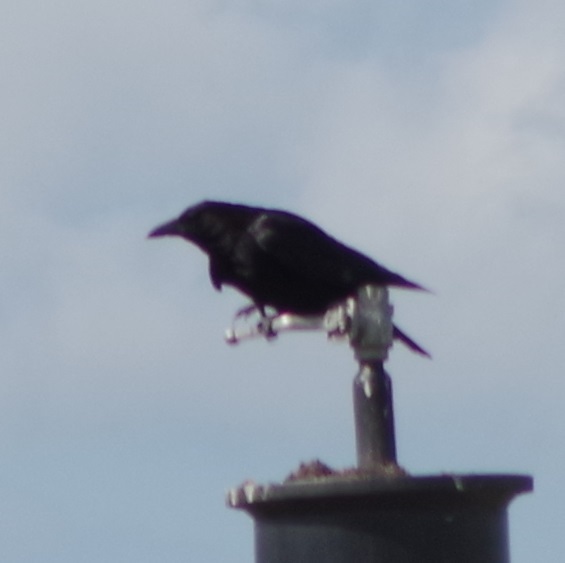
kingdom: Animalia
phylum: Chordata
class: Aves
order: Passeriformes
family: Corvidae
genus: Corvus
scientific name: Corvus corone
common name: Carrion crow
